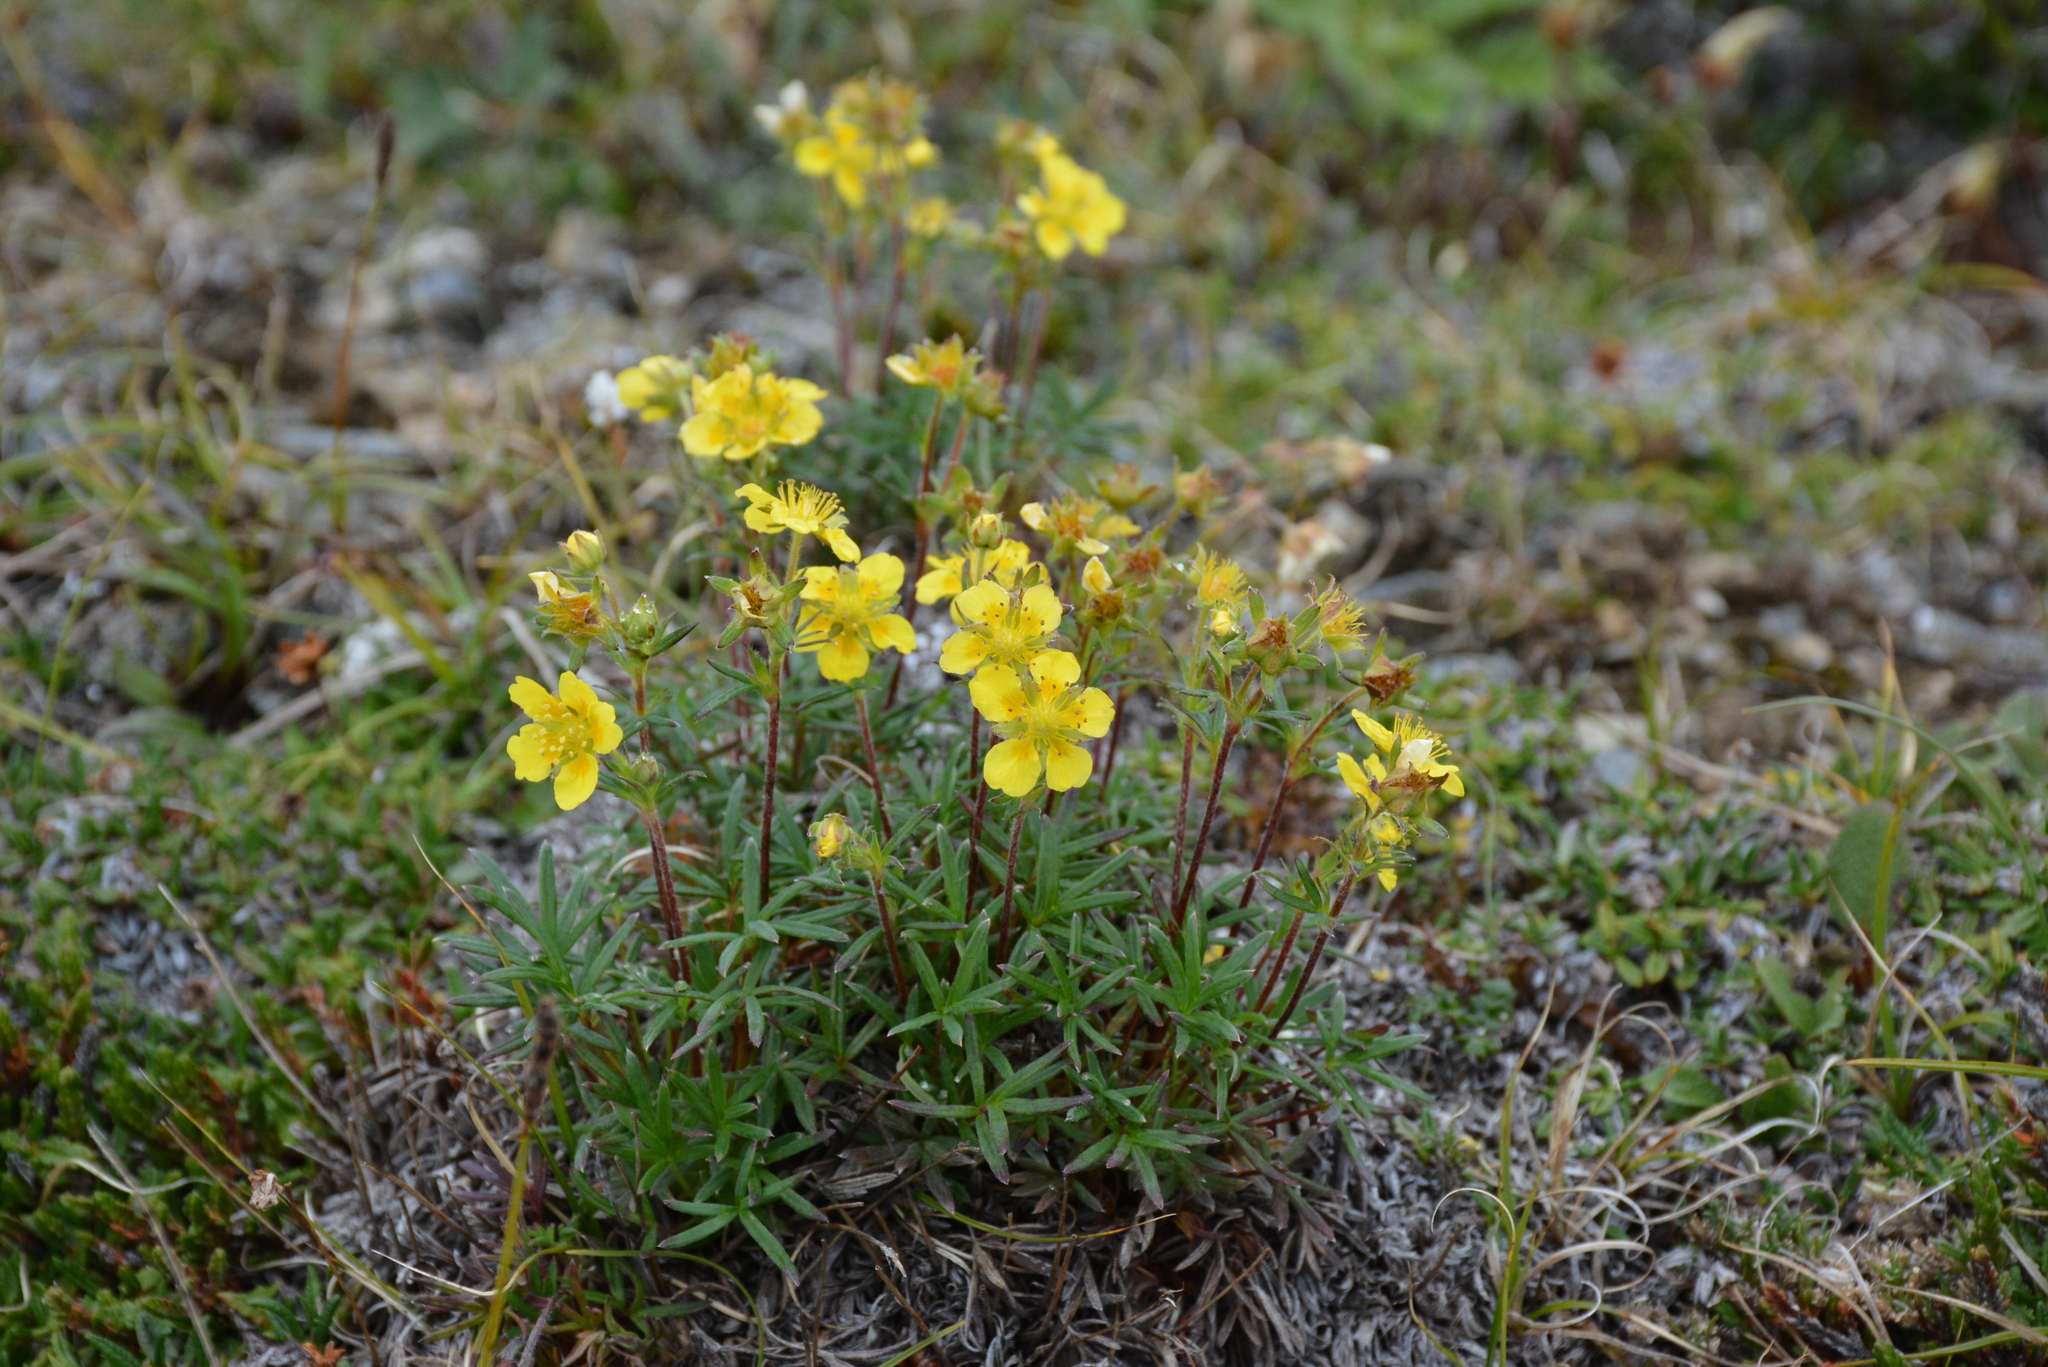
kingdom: Plantae
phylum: Tracheophyta
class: Magnoliopsida
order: Rosales
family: Rosaceae
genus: Potentilla
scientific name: Potentilla biflora
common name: Two-flowered cinquefoil
